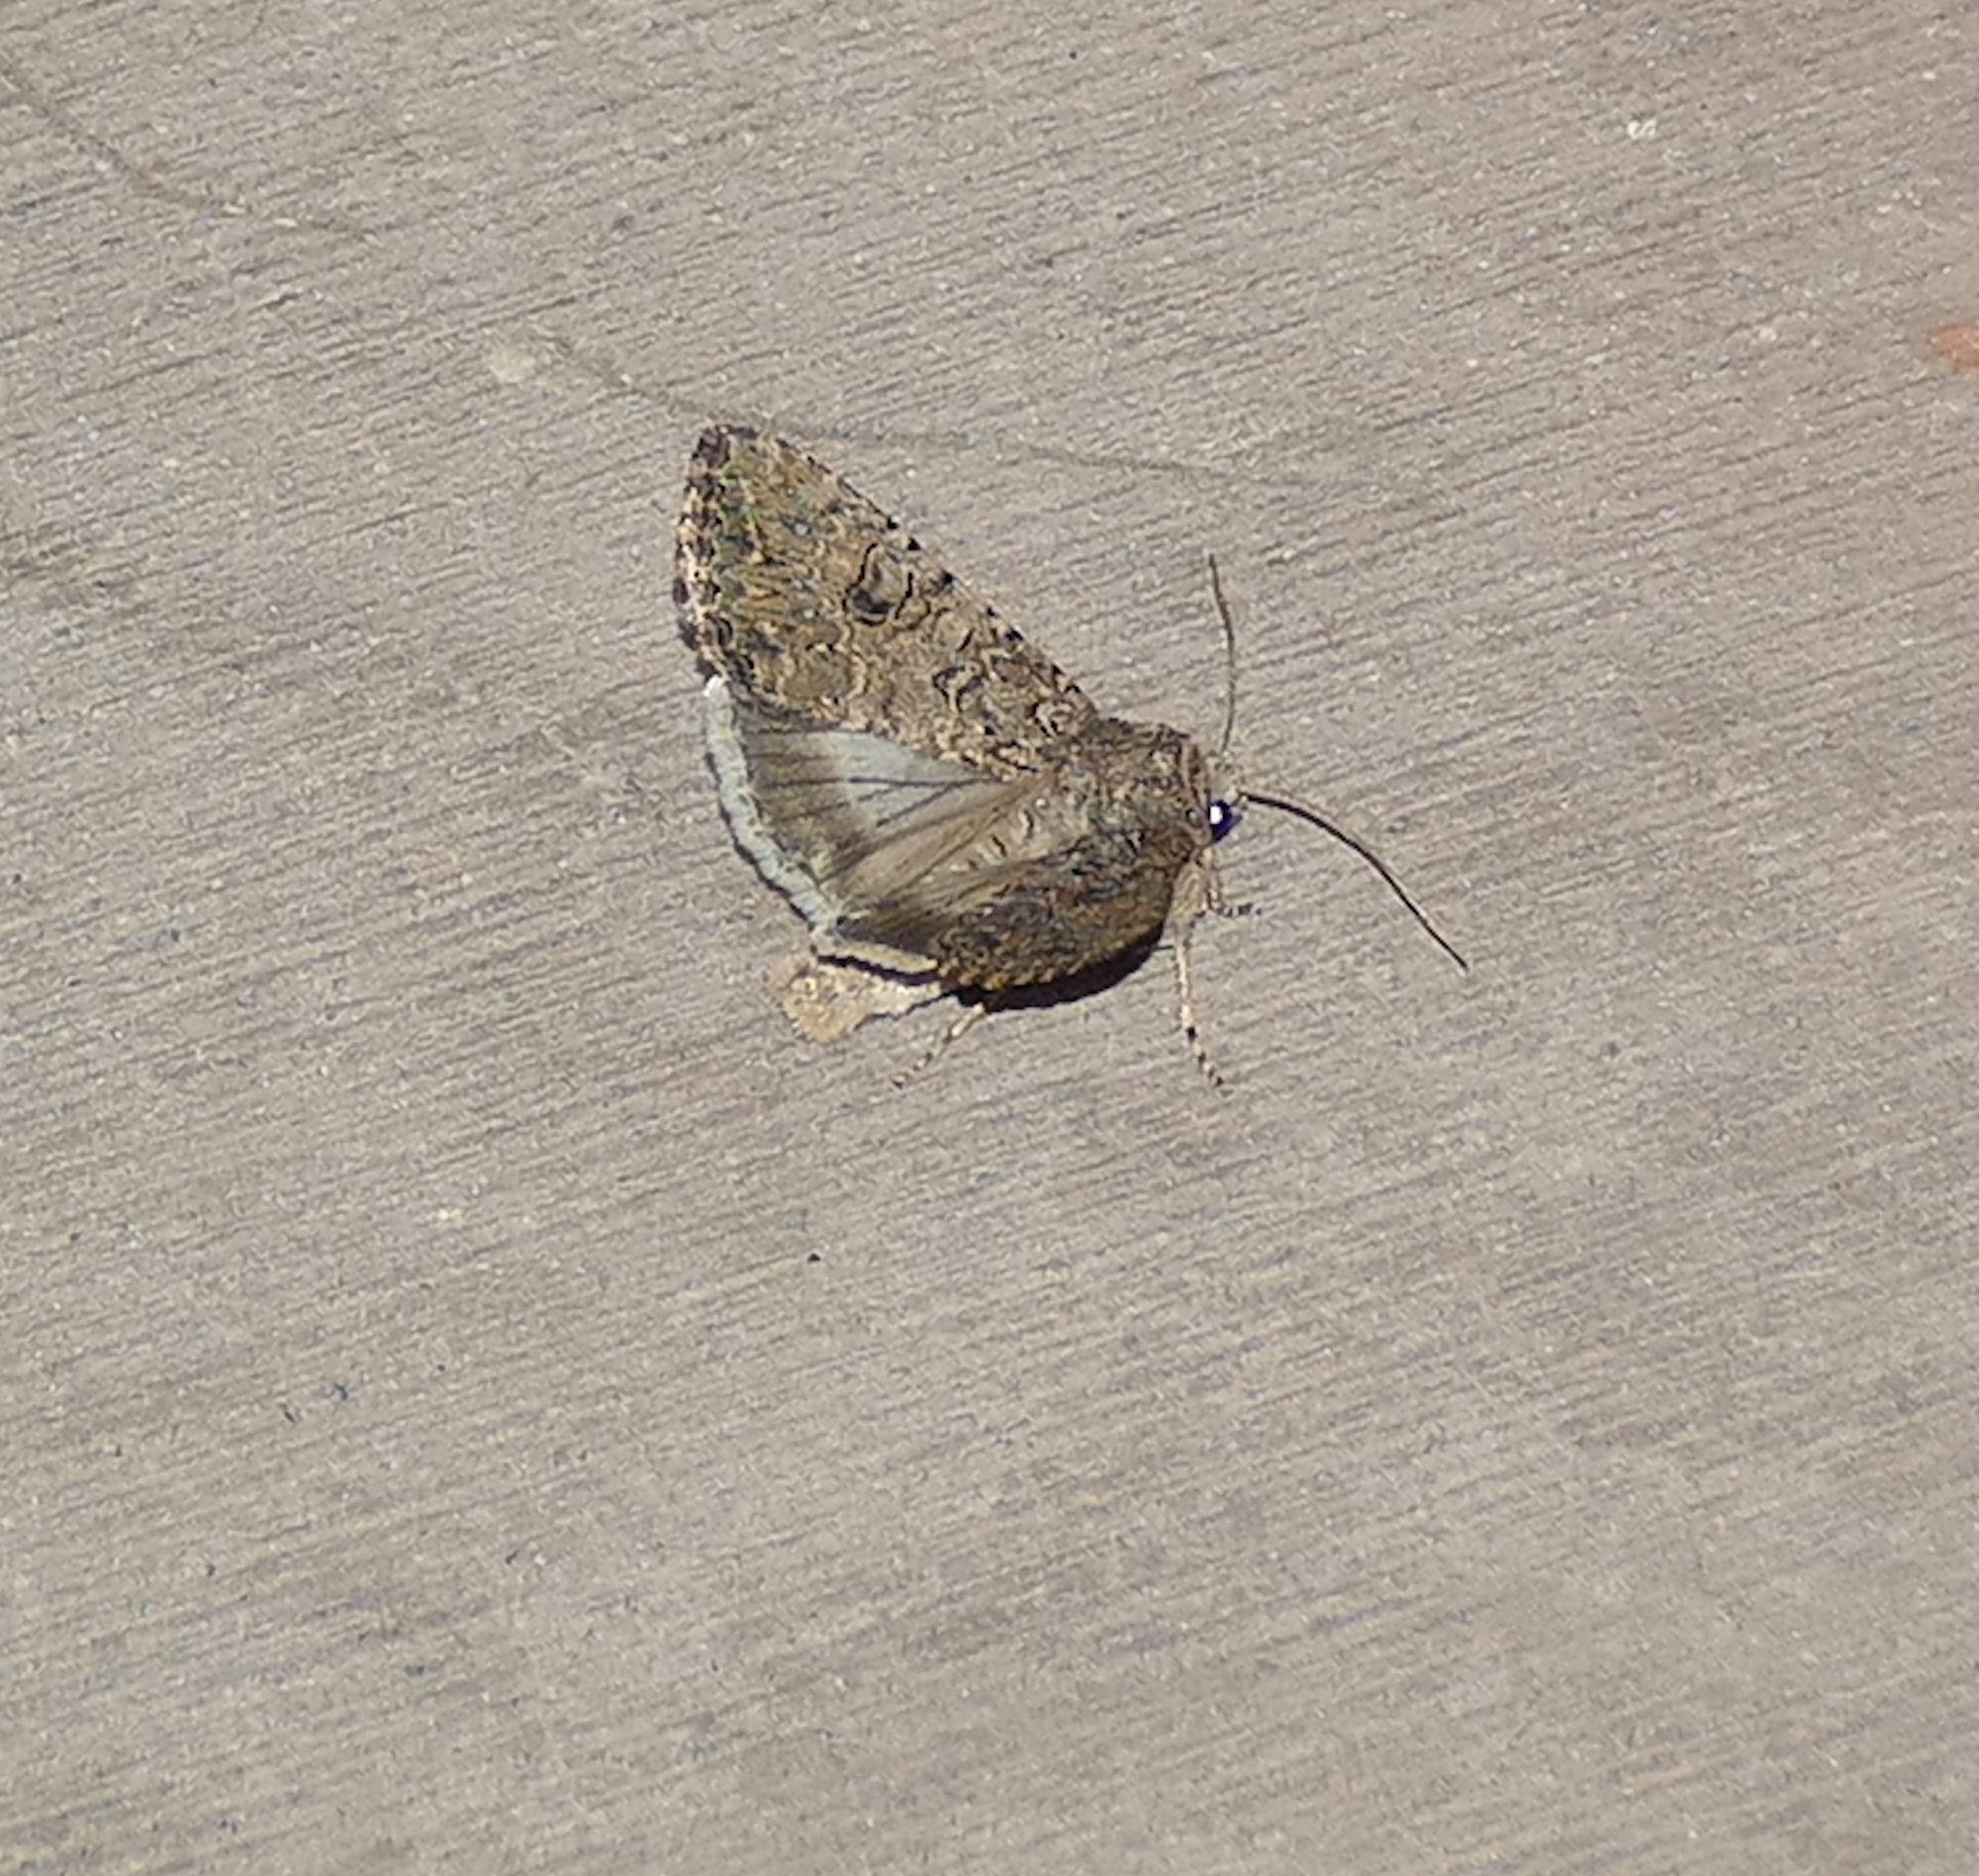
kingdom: Animalia
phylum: Arthropoda
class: Insecta
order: Lepidoptera
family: Noctuidae
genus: Anarta
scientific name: Anarta trifolii
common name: Clover cutworm moth
